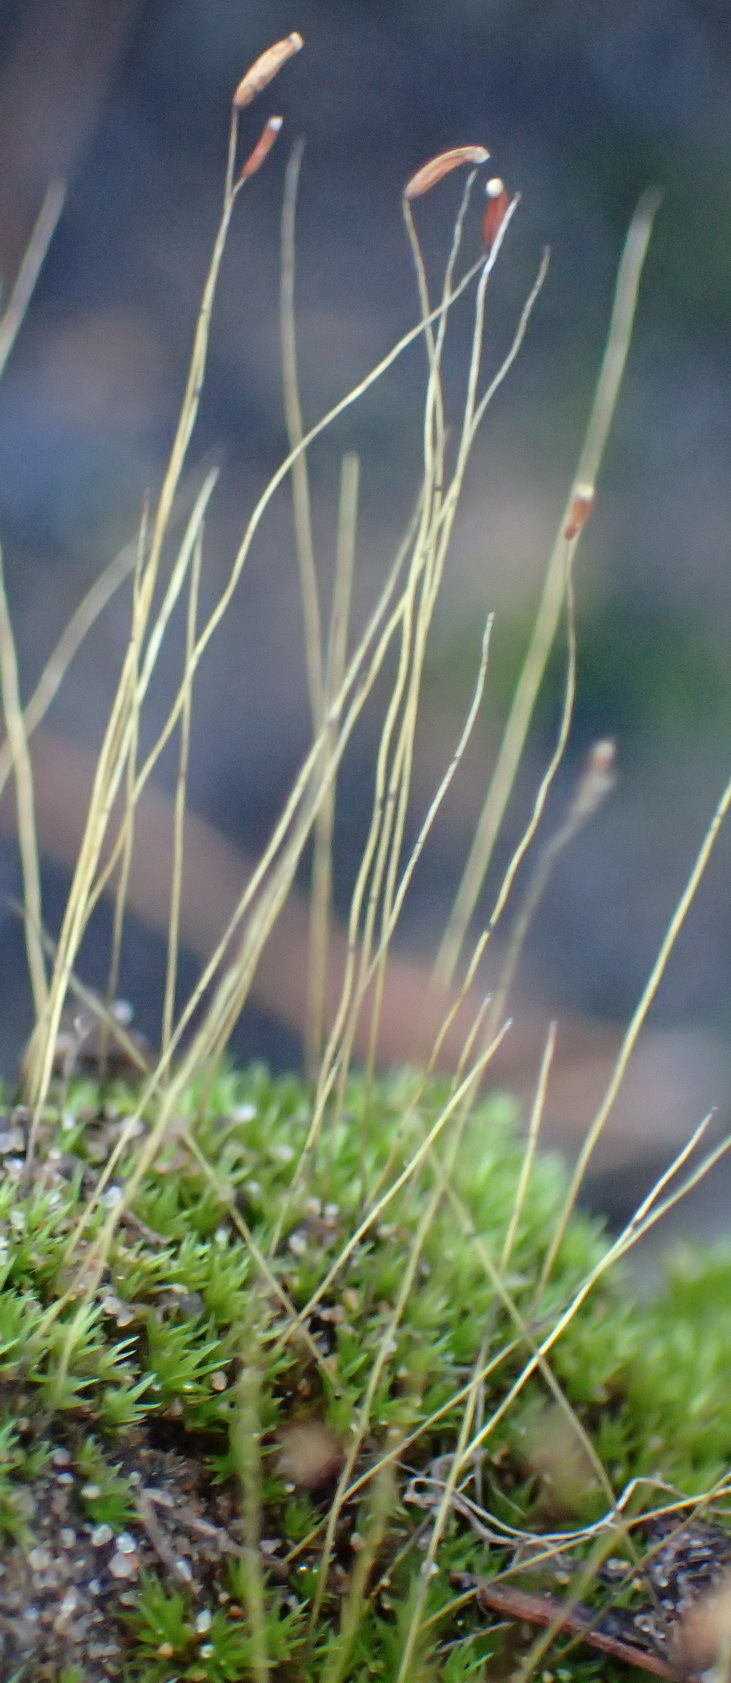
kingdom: Plantae
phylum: Bryophyta
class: Bryopsida
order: Dicranales
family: Ditrichaceae
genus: Ceratodon
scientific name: Ceratodon purpureus
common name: Redshank
